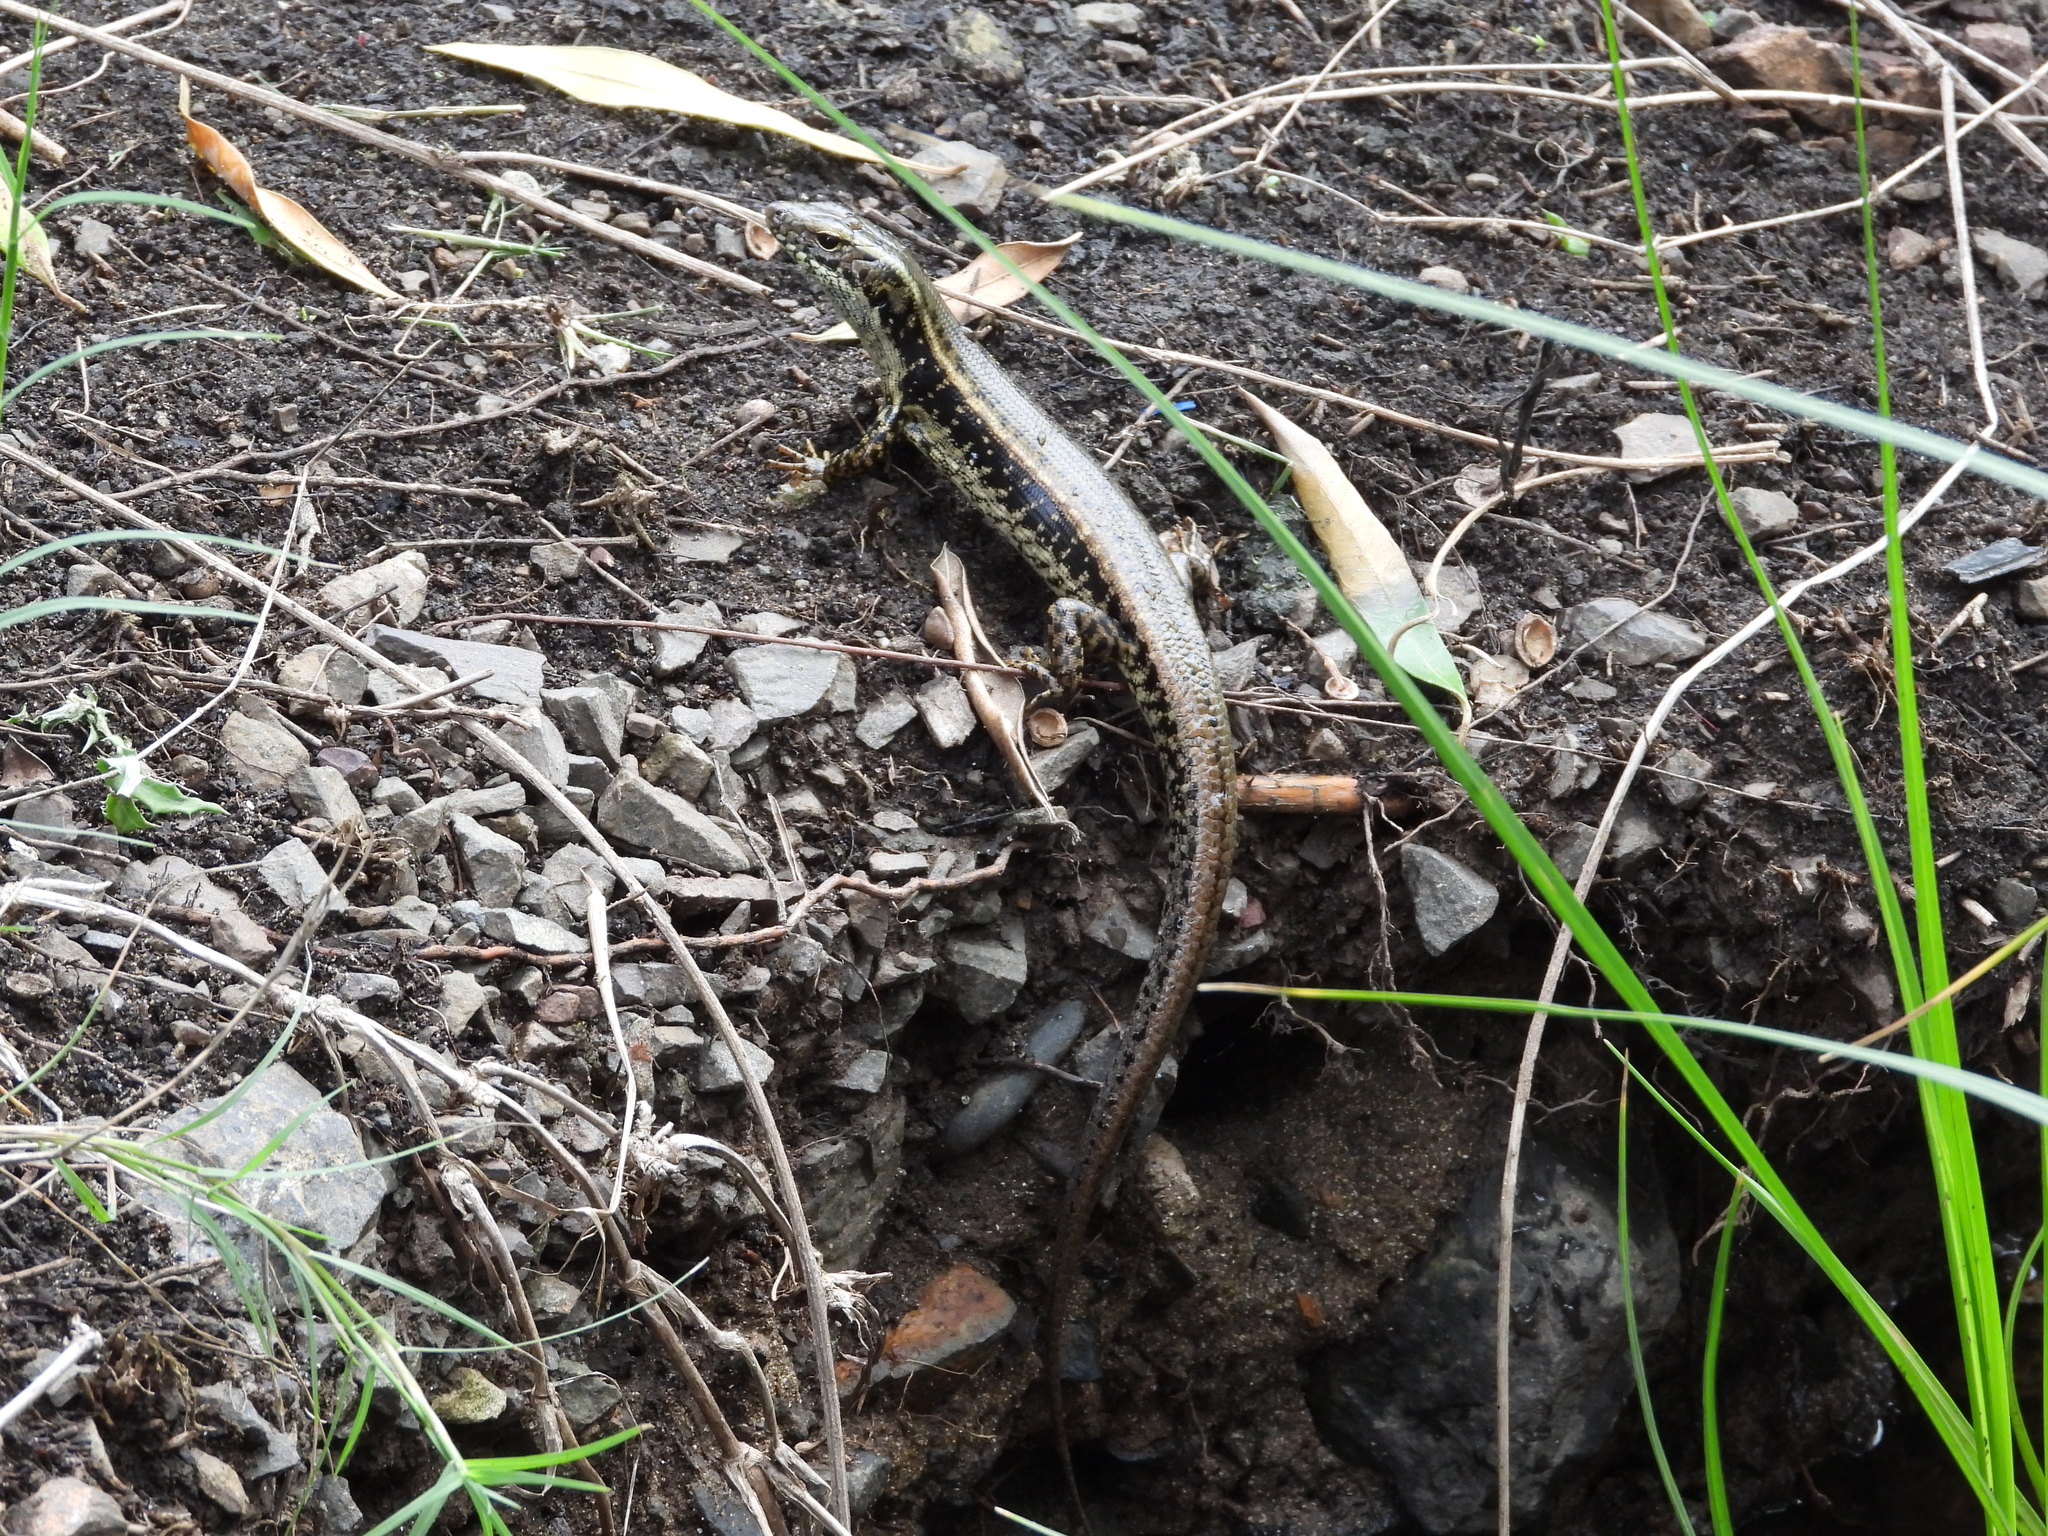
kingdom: Animalia
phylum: Chordata
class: Squamata
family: Scincidae
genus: Eulamprus
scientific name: Eulamprus quoyii
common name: Eastern water skink
